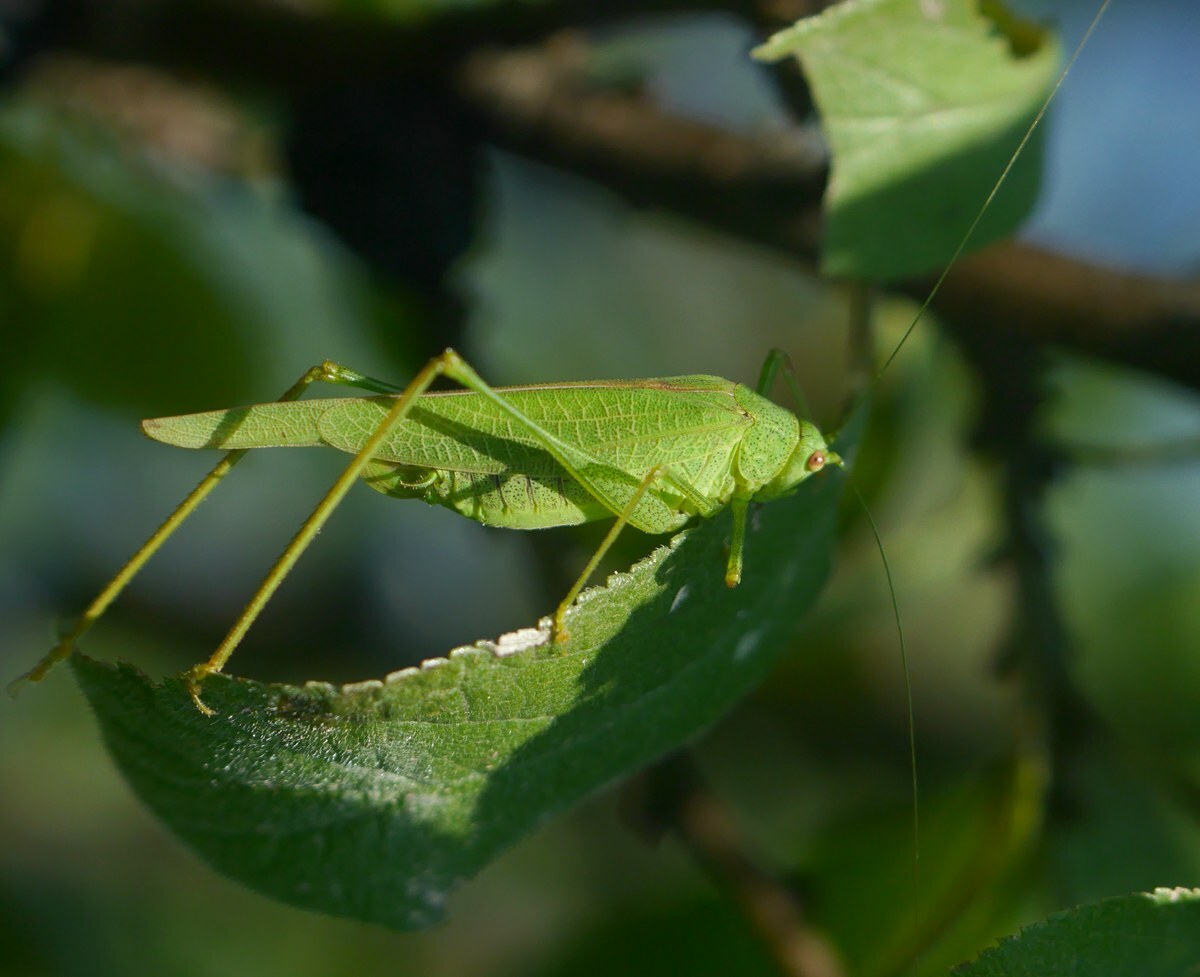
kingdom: Animalia
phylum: Arthropoda
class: Insecta
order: Orthoptera
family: Tettigoniidae
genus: Phaneroptera
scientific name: Phaneroptera nana
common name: Southern sickle bush-cricket
